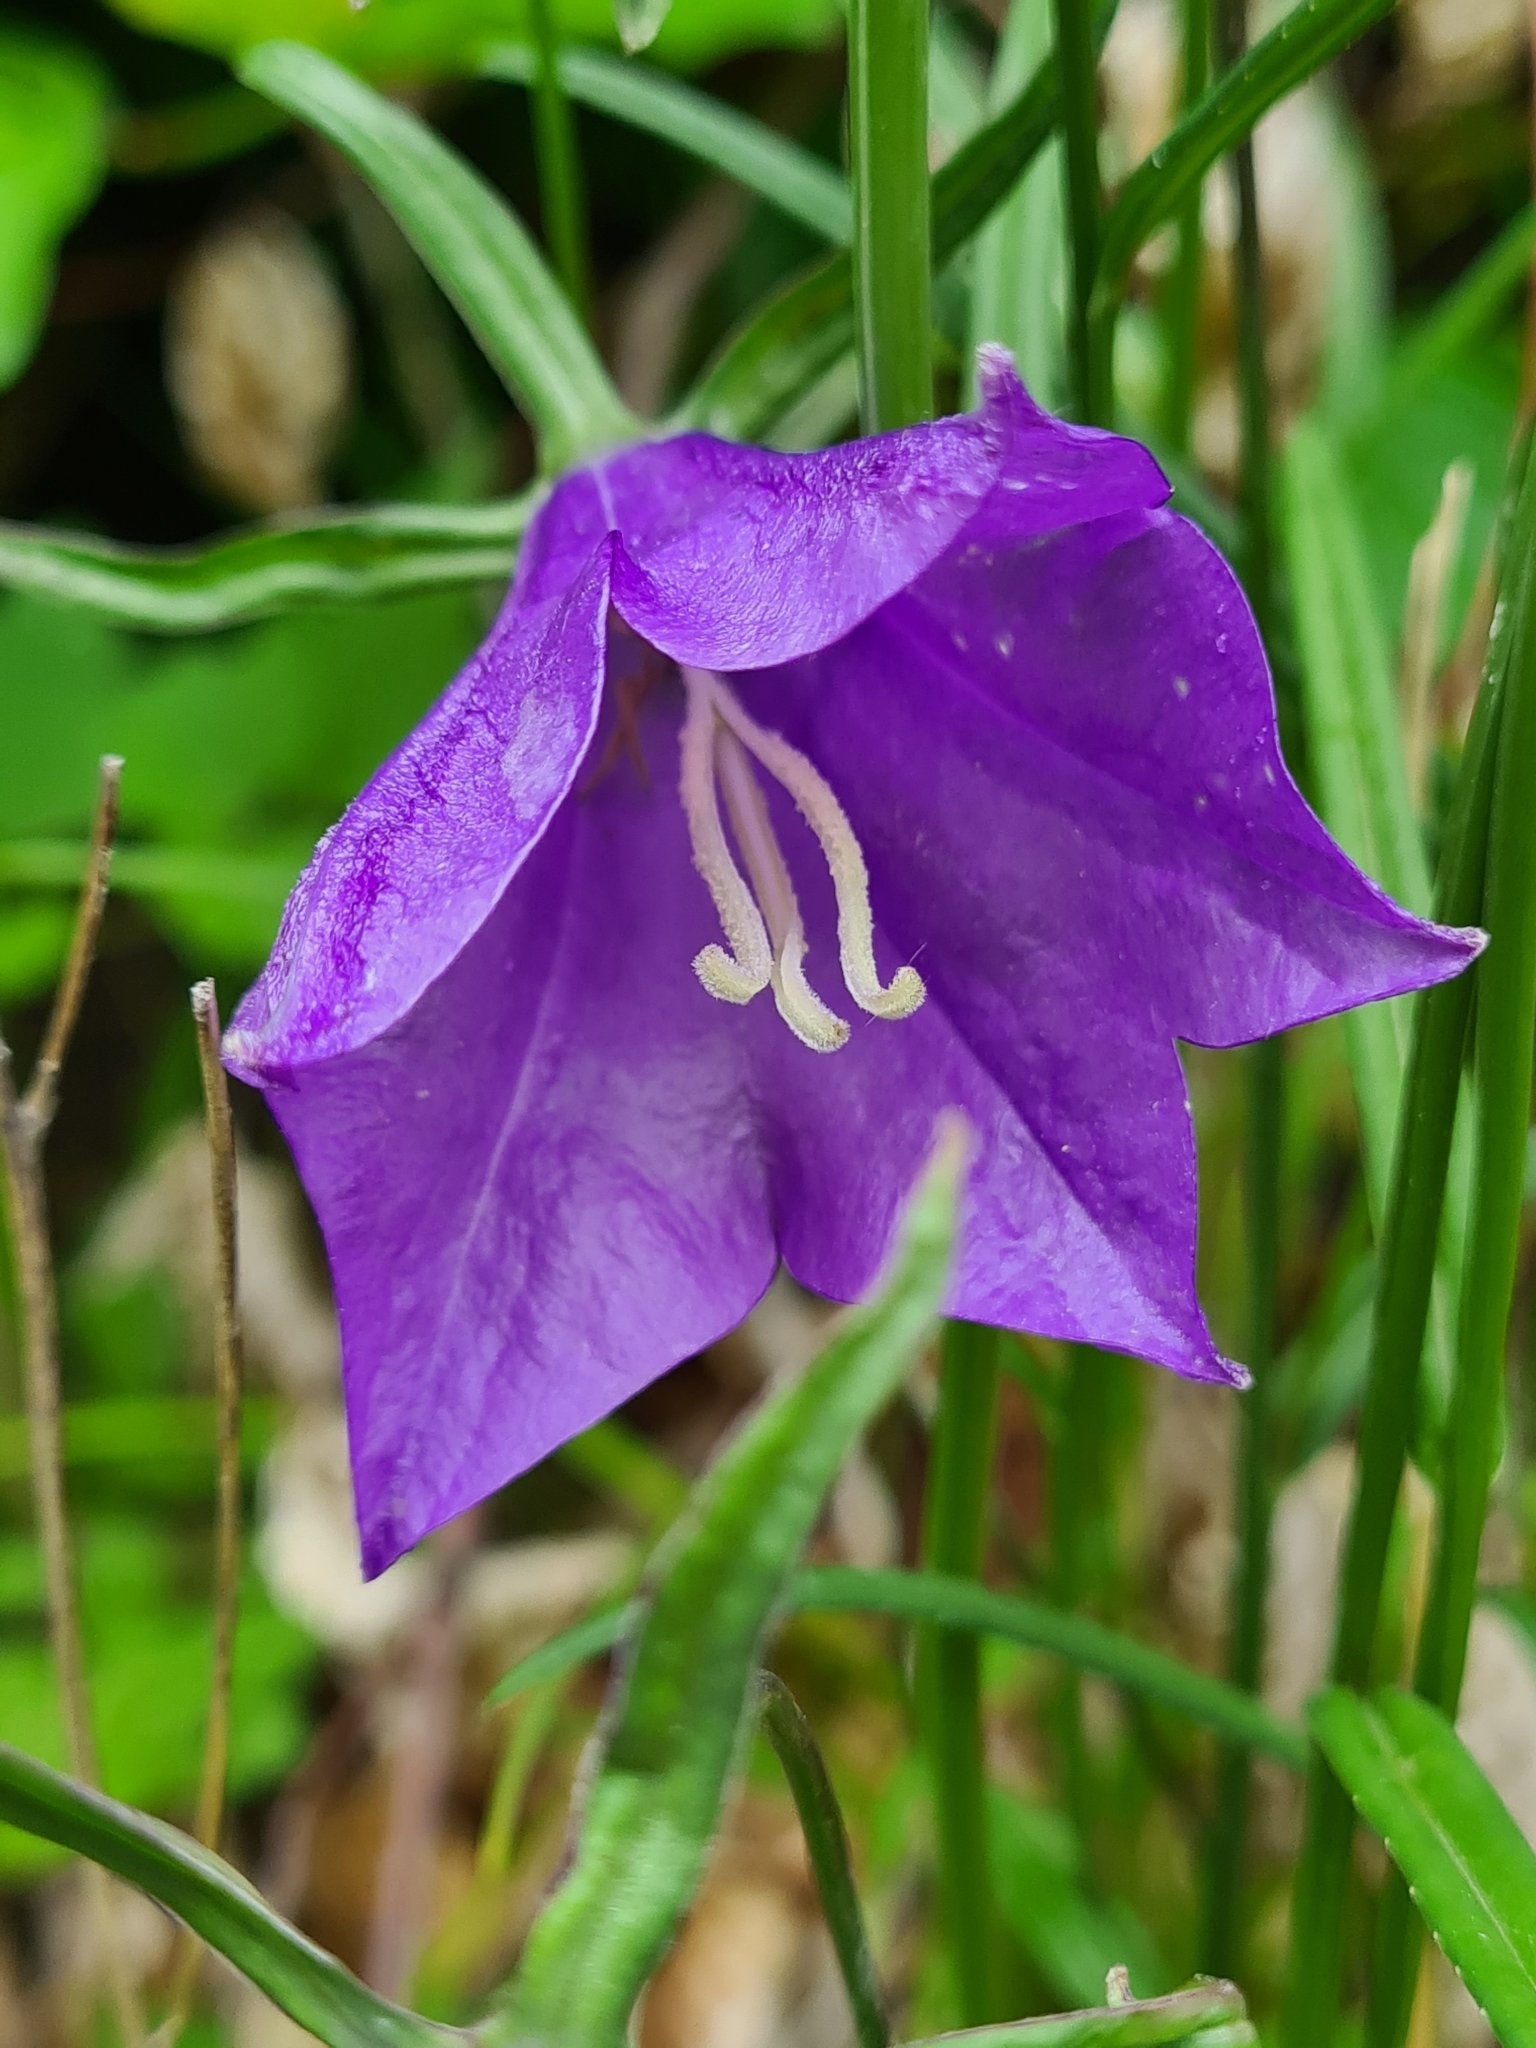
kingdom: Plantae
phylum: Tracheophyta
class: Magnoliopsida
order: Asterales
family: Campanulaceae
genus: Campanula
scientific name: Campanula persicifolia
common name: Peach-leaved bellflower
